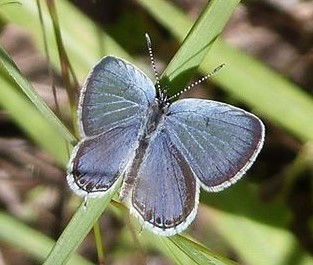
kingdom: Animalia
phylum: Arthropoda
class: Insecta
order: Lepidoptera
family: Lycaenidae
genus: Elkalyce
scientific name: Elkalyce comyntas
